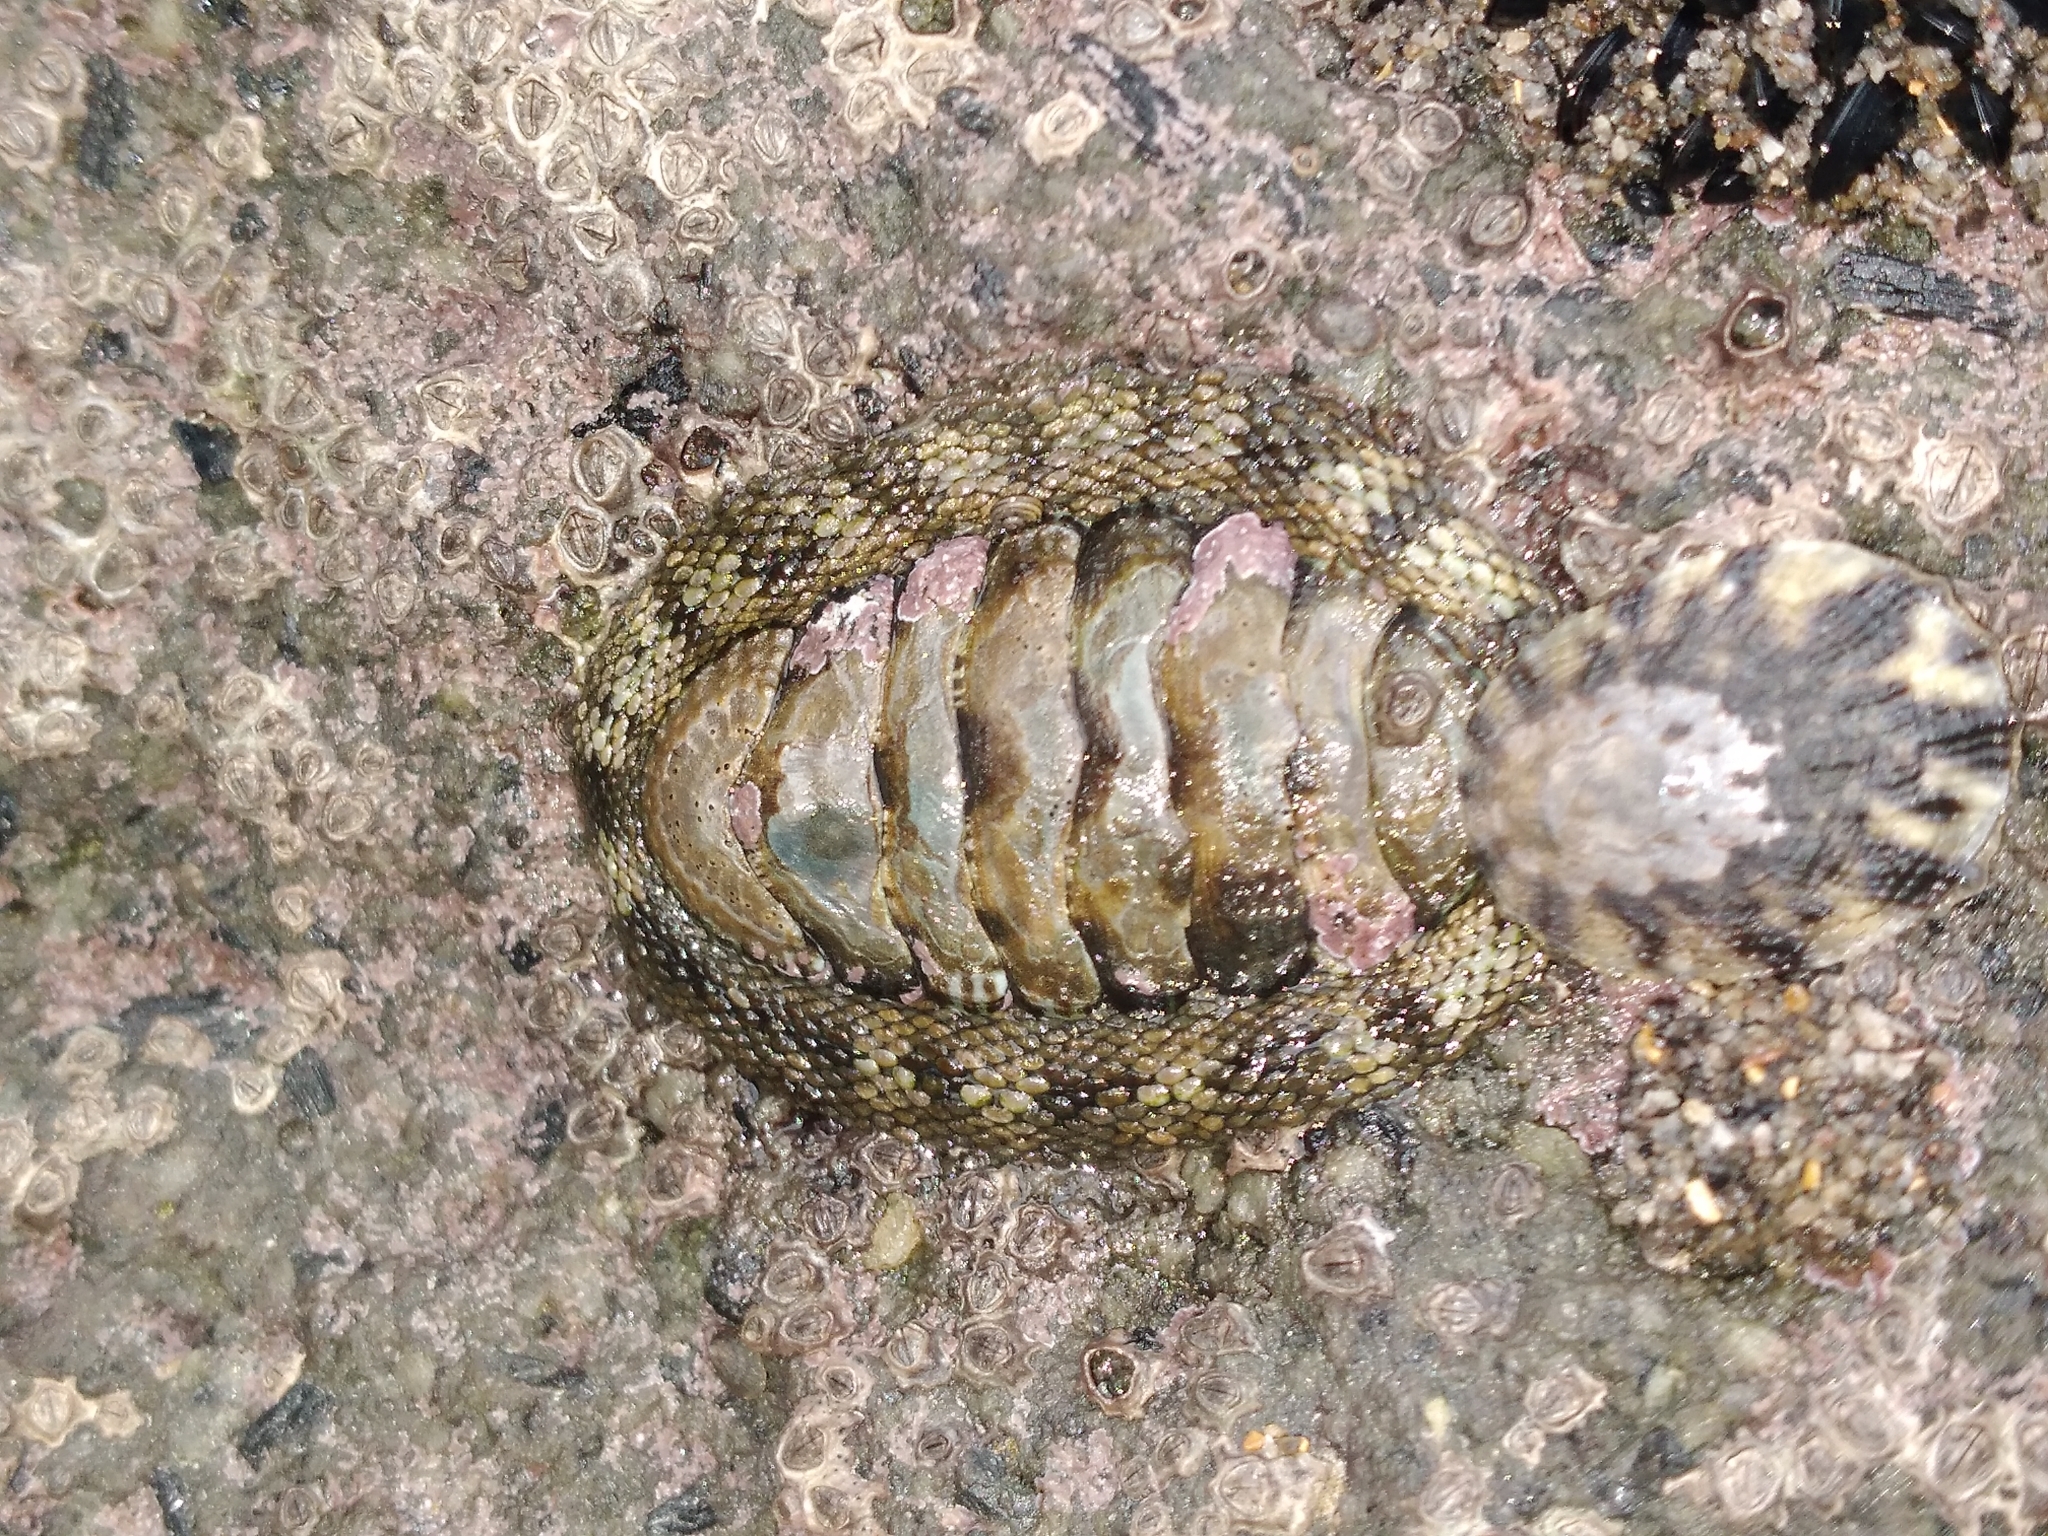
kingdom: Animalia
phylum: Mollusca
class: Polyplacophora
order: Chitonida
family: Chitonidae
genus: Sypharochiton
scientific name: Sypharochiton pelliserpentis
